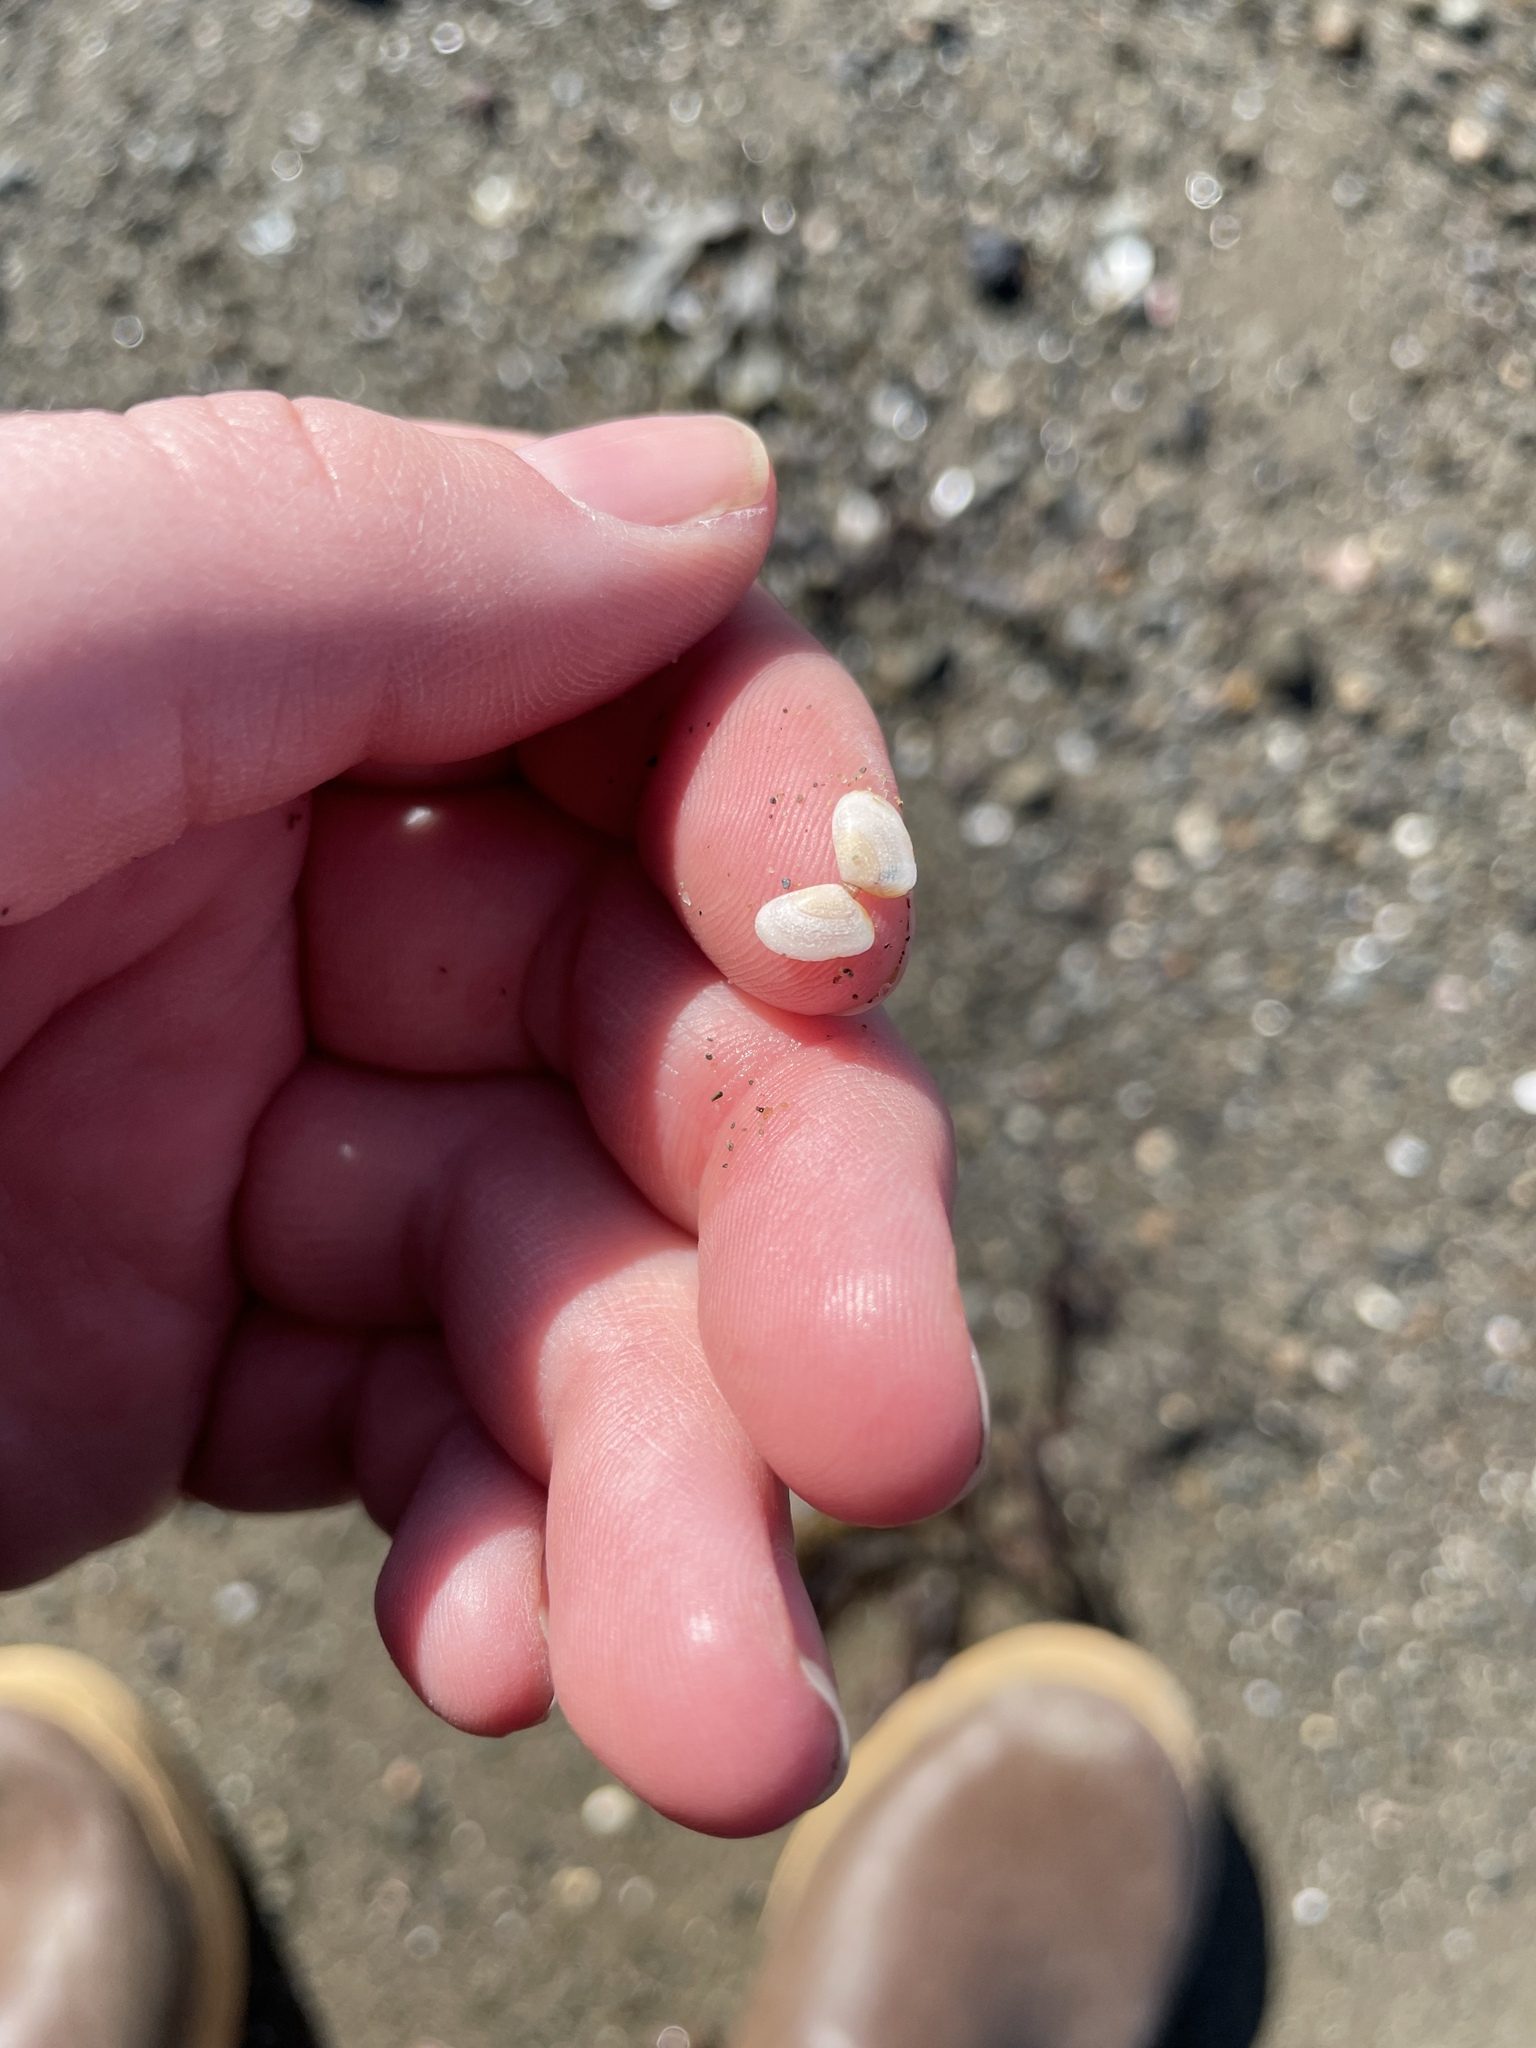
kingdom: Animalia
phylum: Mollusca
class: Bivalvia
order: Cardiida
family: Tellinidae
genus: Ameritella
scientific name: Ameritella agilis
